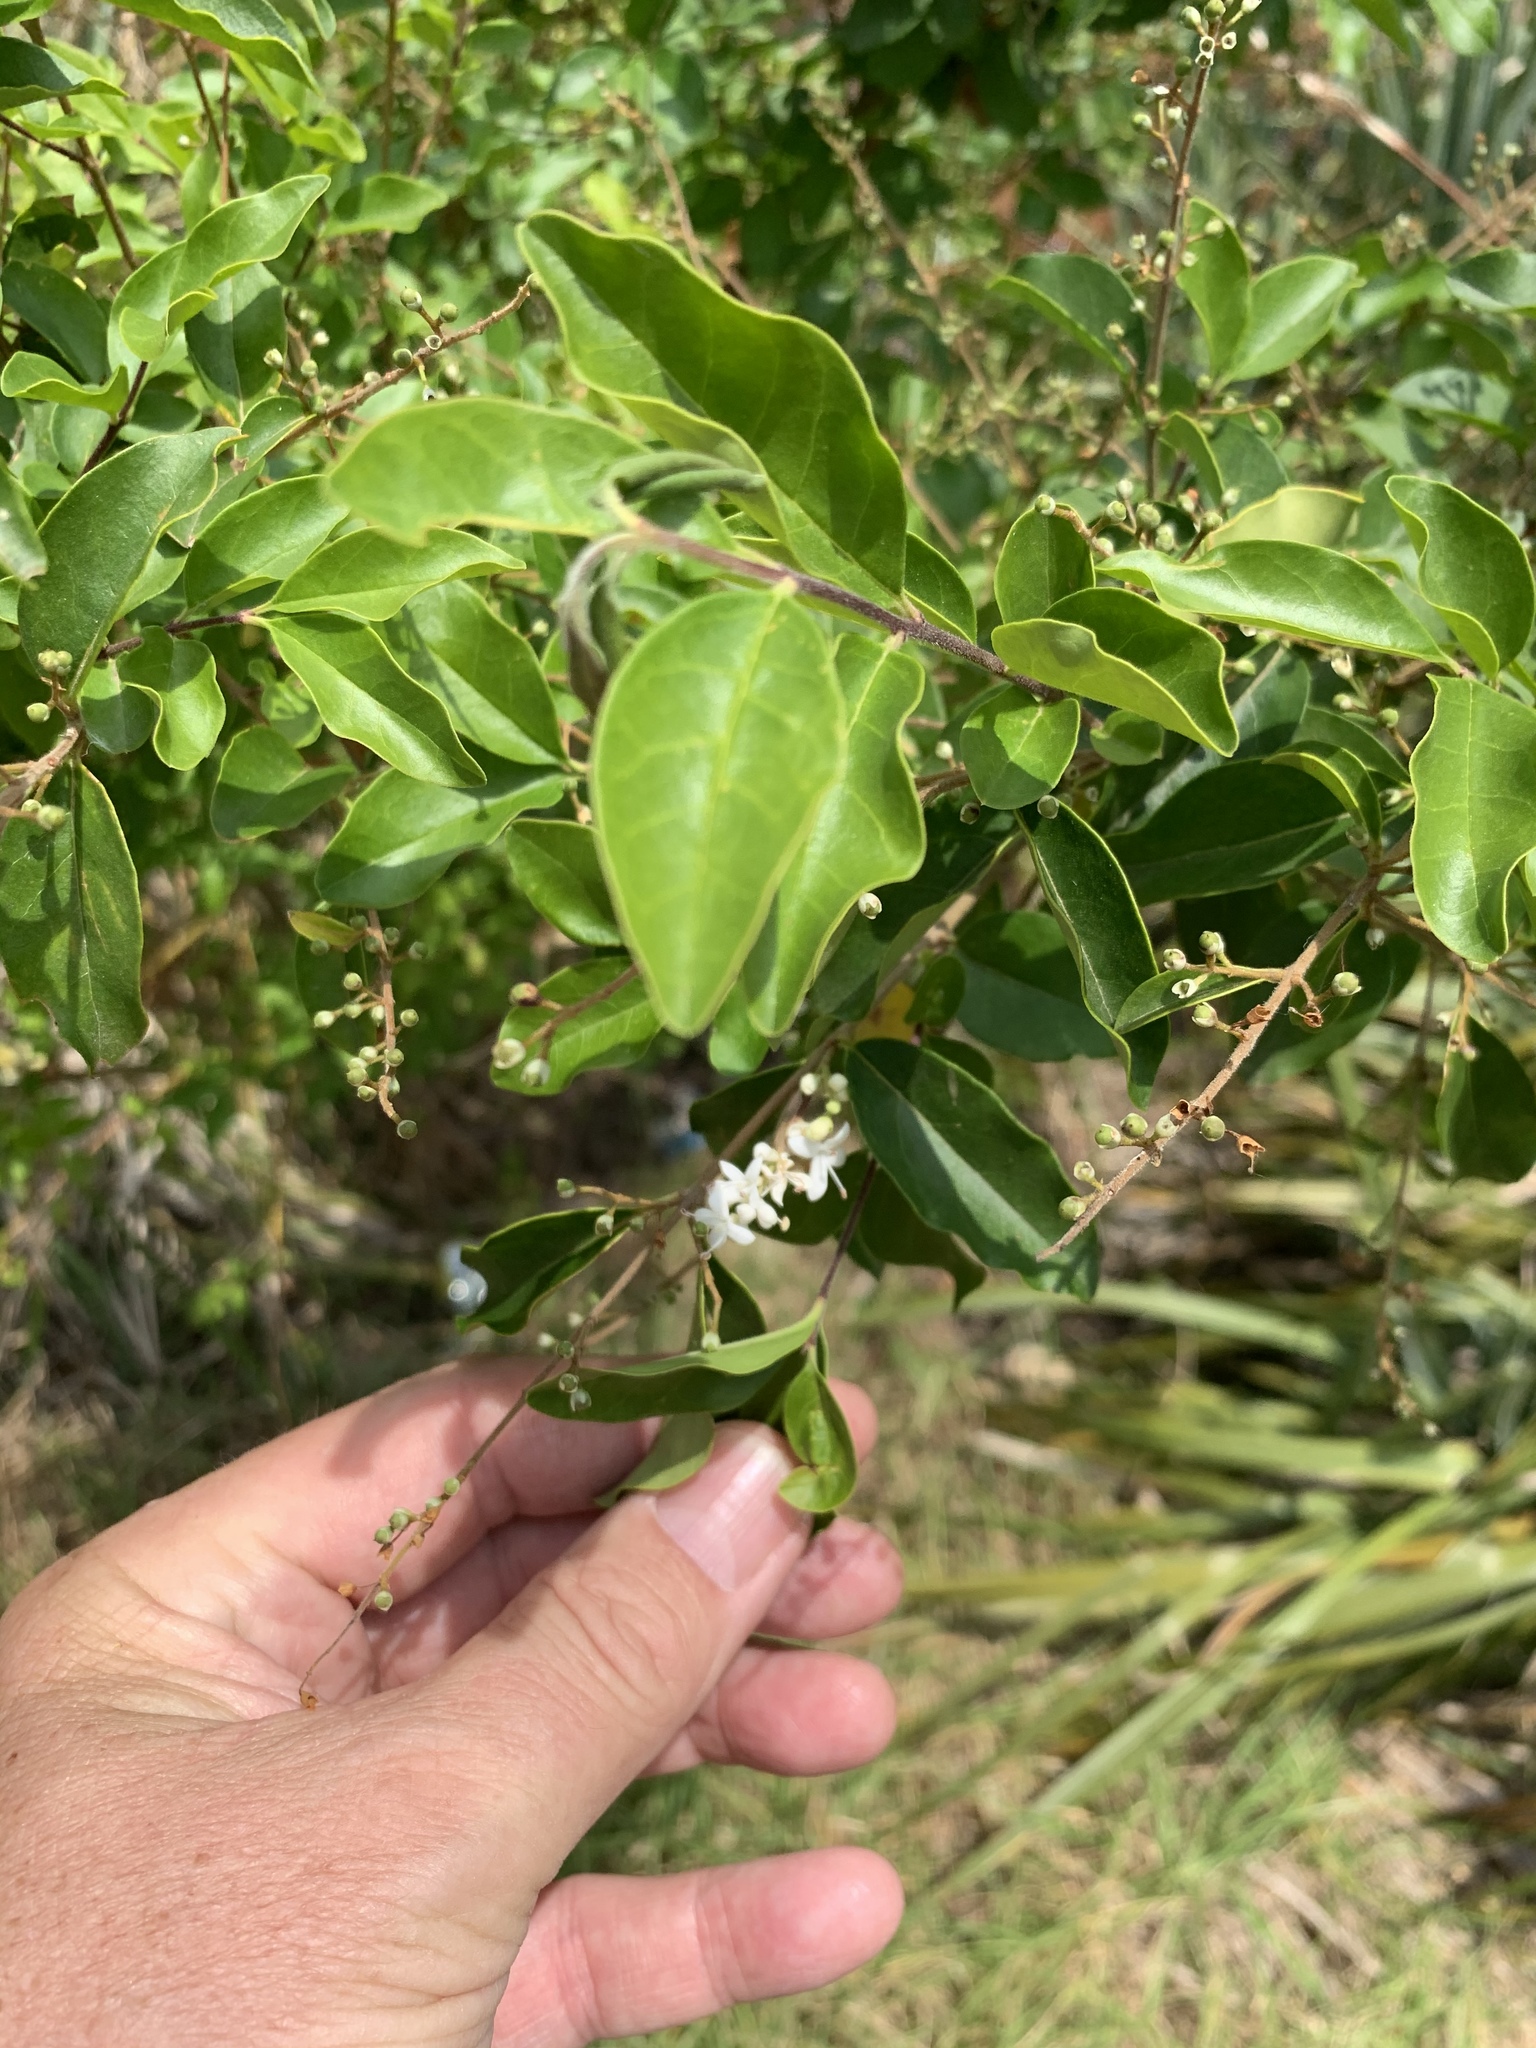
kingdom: Plantae
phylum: Tracheophyta
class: Magnoliopsida
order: Lamiales
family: Oleaceae
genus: Ligustrum
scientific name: Ligustrum sinense
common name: Chinese privet
